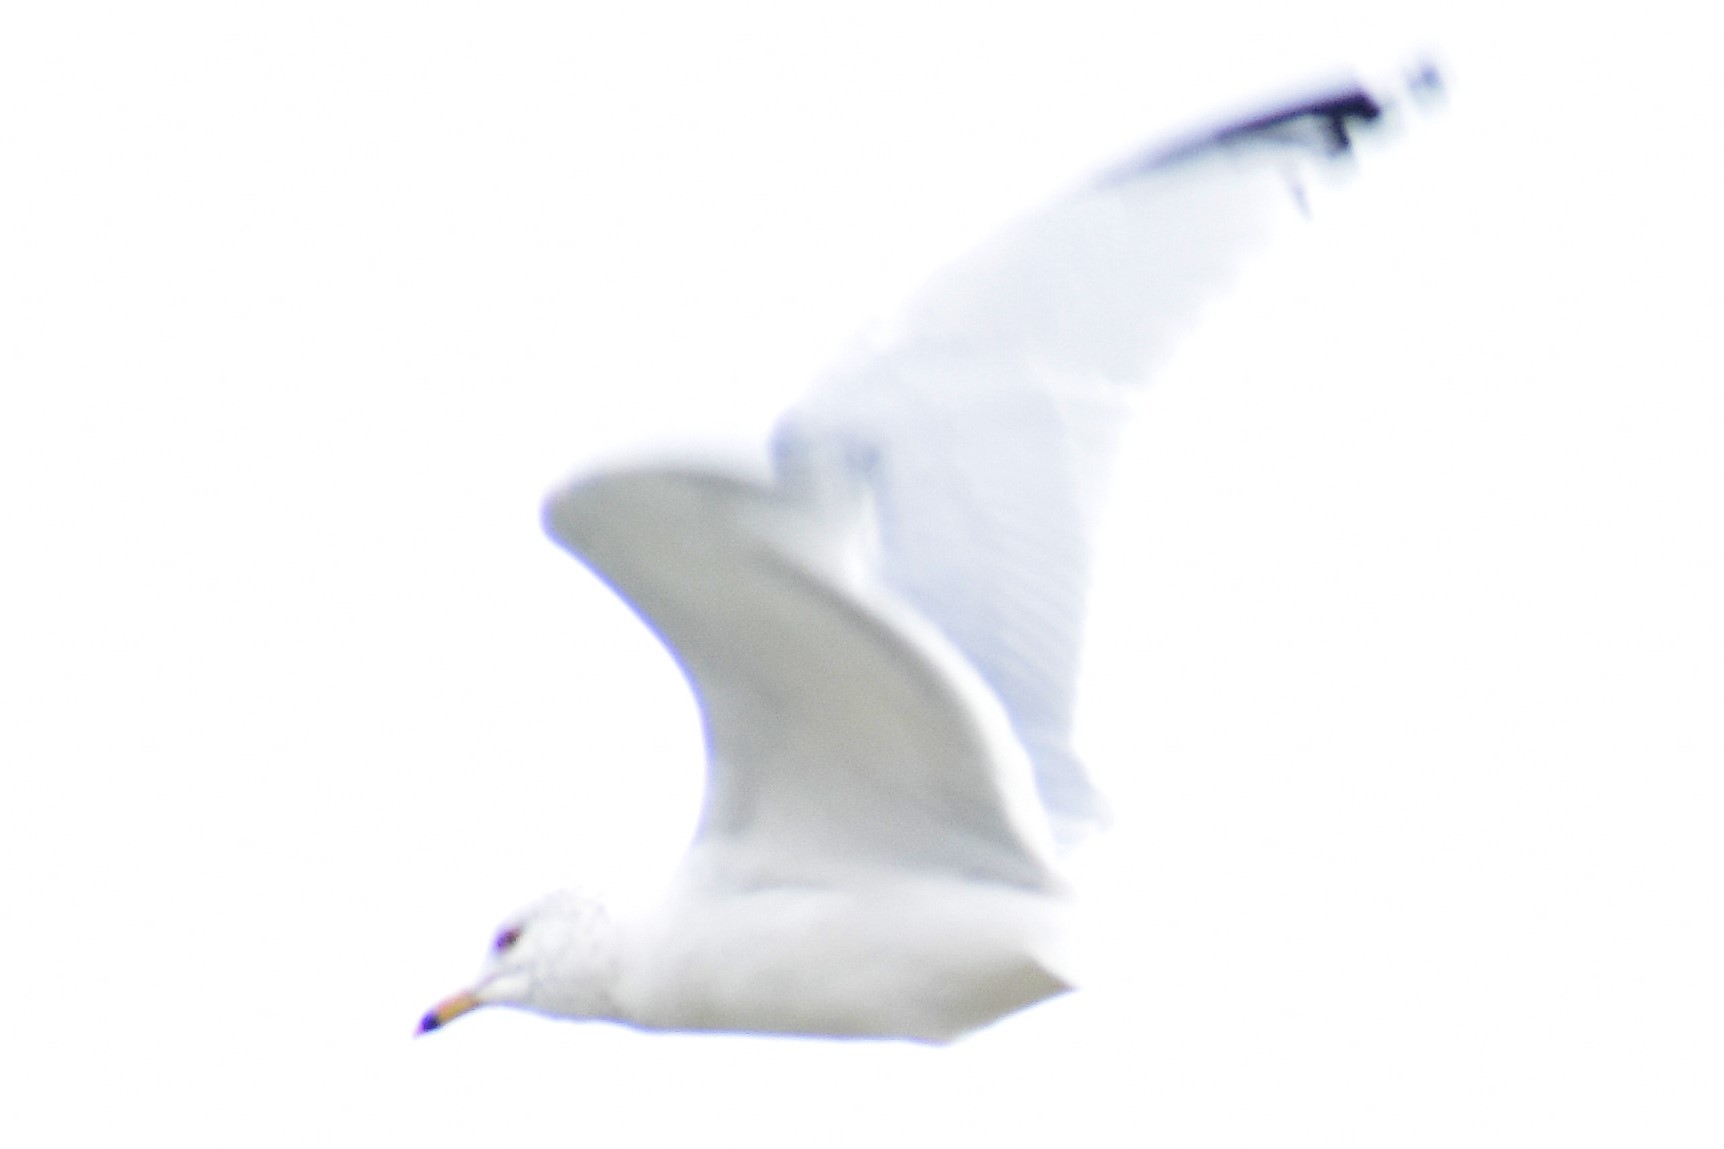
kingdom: Animalia
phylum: Chordata
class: Aves
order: Charadriiformes
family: Laridae
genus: Larus
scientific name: Larus delawarensis
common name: Ring-billed gull
